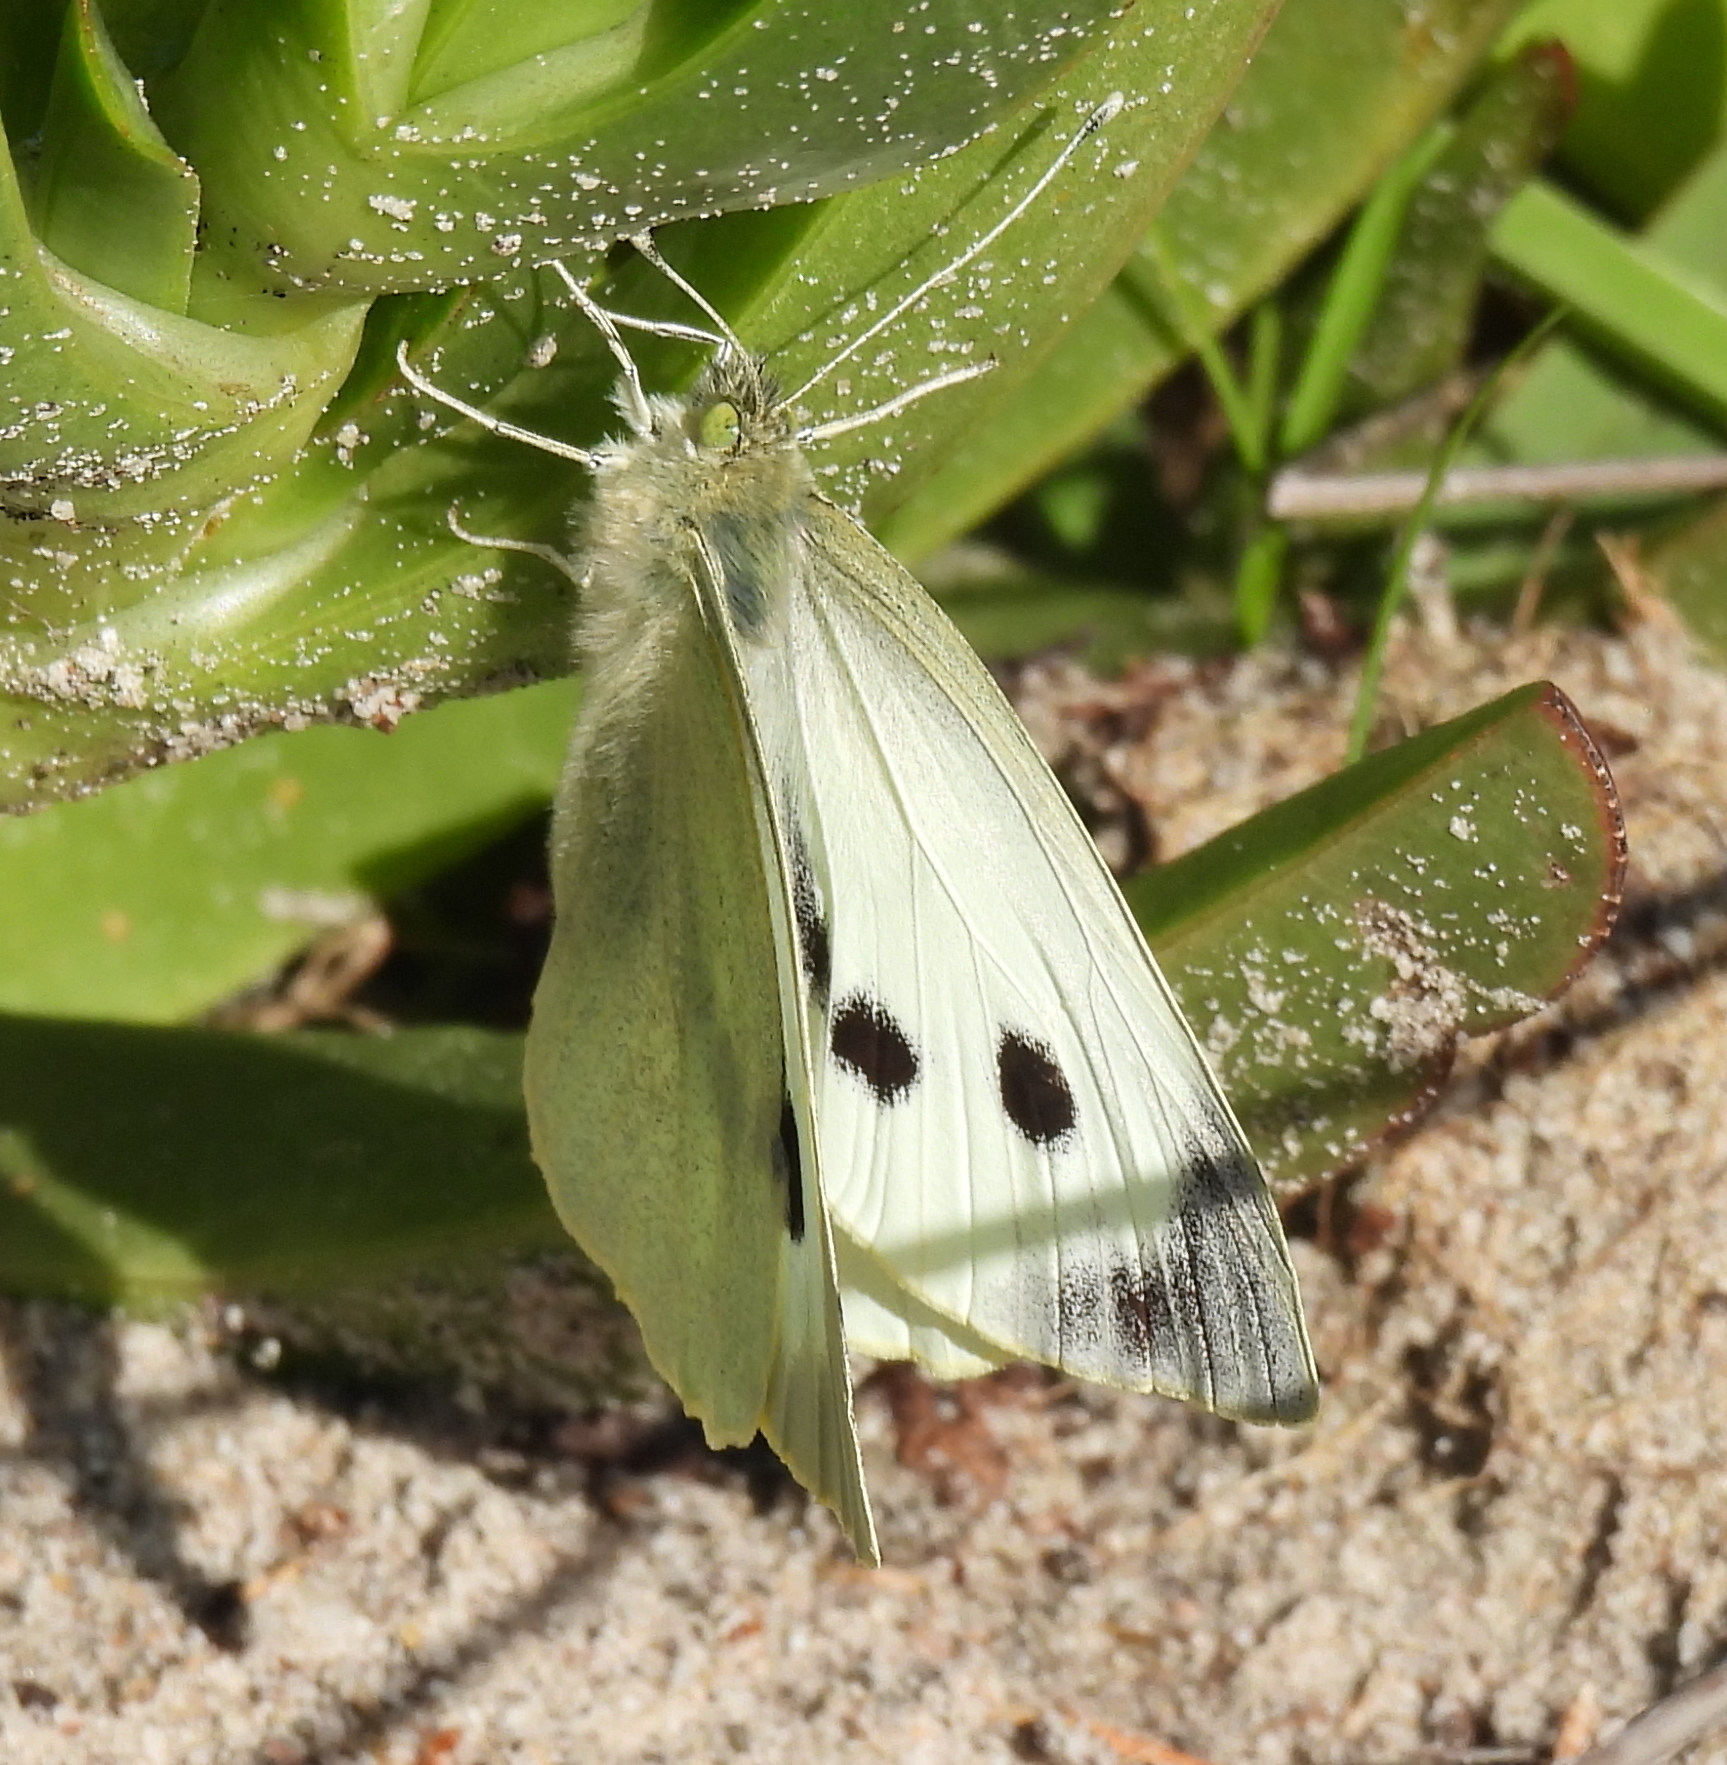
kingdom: Animalia
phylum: Arthropoda
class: Insecta
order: Lepidoptera
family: Pieridae
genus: Pieris
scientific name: Pieris brassicae
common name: Large white
